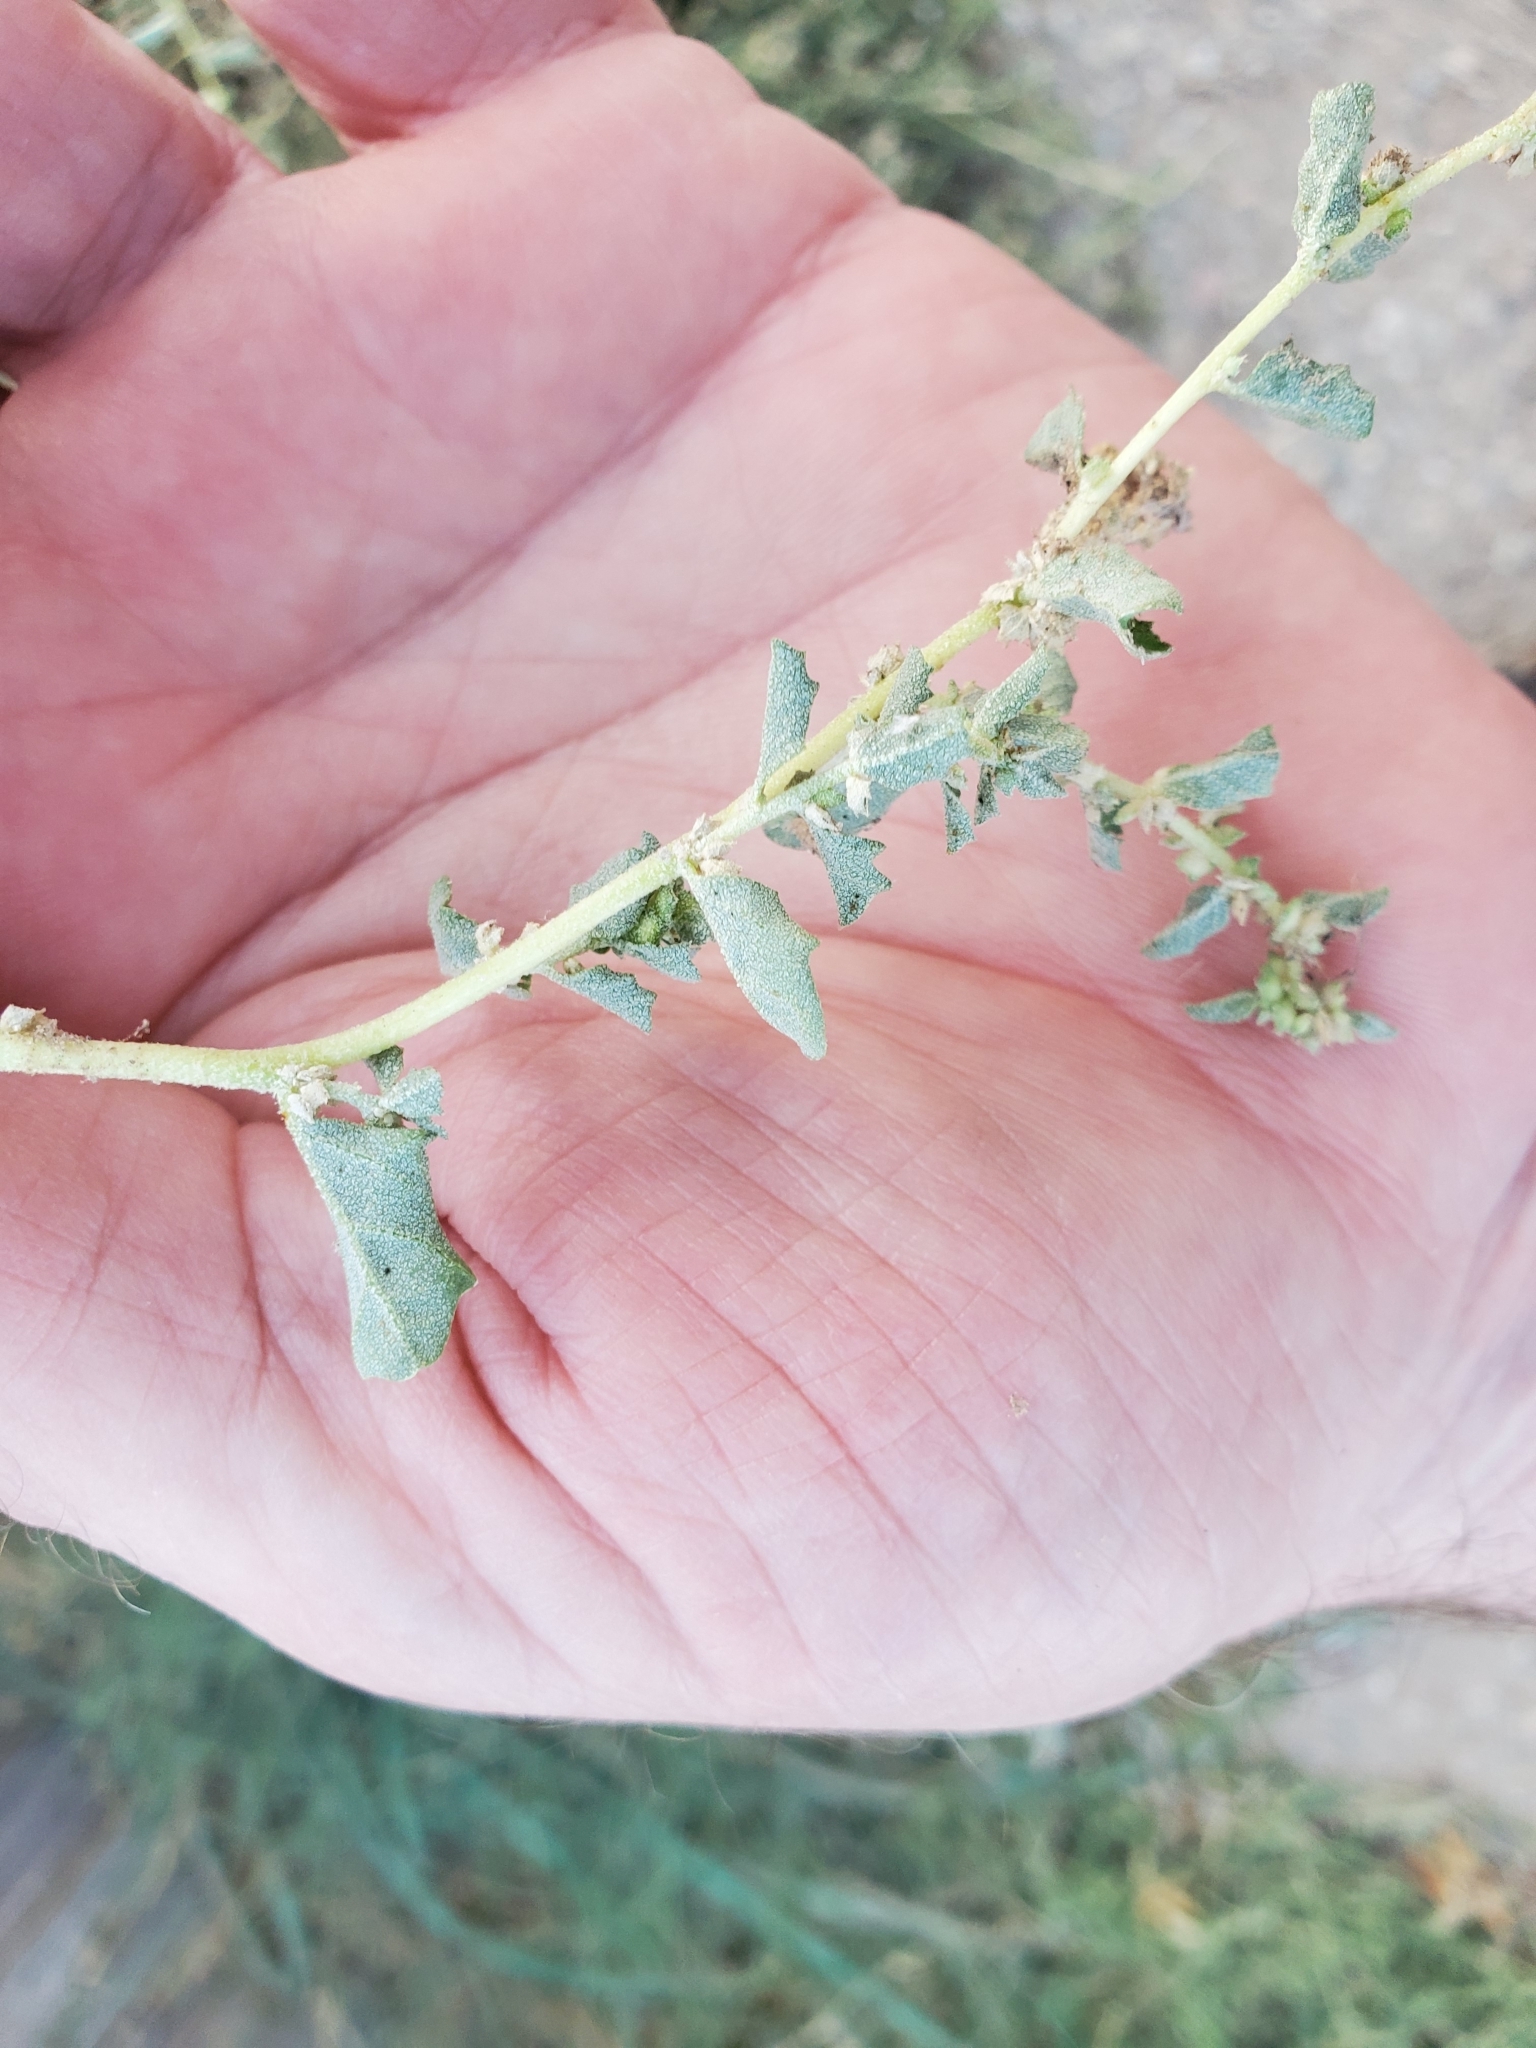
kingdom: Plantae
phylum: Tracheophyta
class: Magnoliopsida
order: Caryophyllales
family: Amaranthaceae
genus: Atriplex
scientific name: Atriplex suberecta
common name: Australian orache
